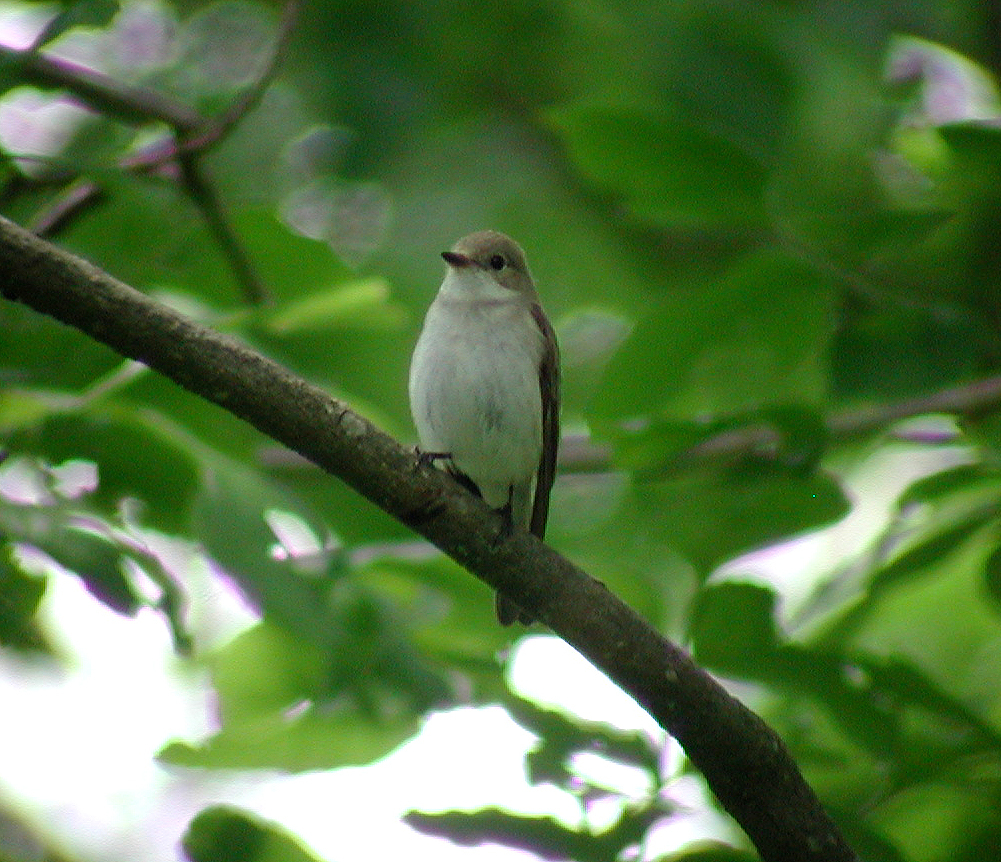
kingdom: Animalia
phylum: Chordata
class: Aves
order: Passeriformes
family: Muscicapidae
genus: Ficedula
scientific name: Ficedula hypoleuca
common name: European pied flycatcher
